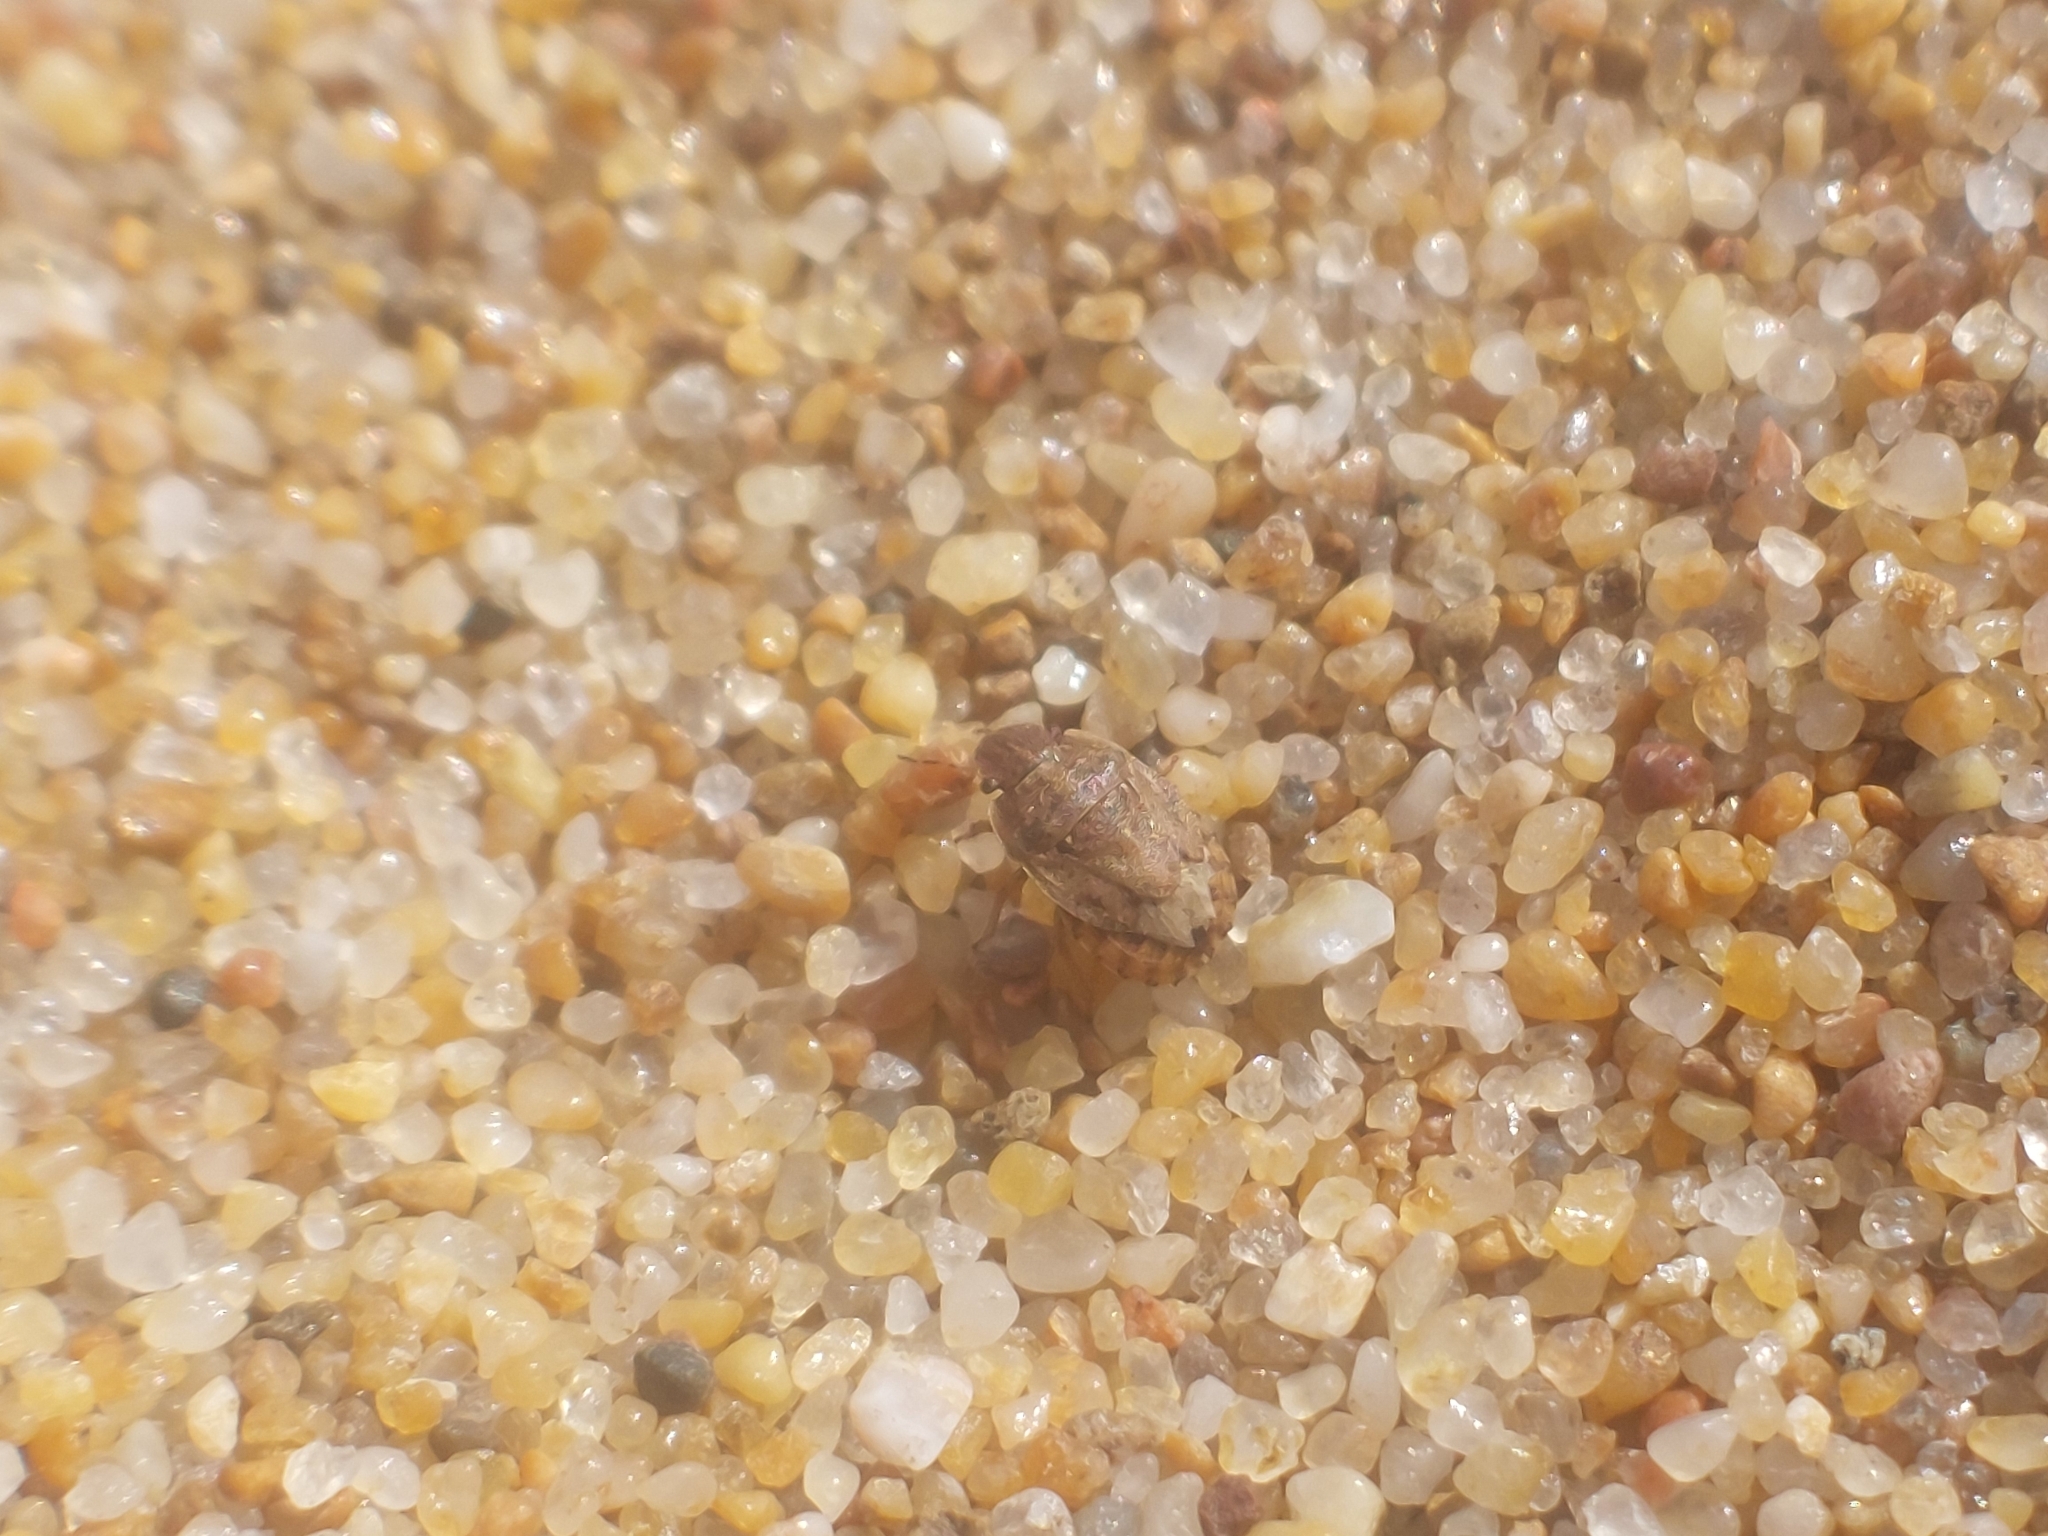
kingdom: Animalia
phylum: Arthropoda
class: Insecta
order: Hemiptera
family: Pentatomidae
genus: Sciocoris
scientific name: Sciocoris cursitans
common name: Sandrunner
